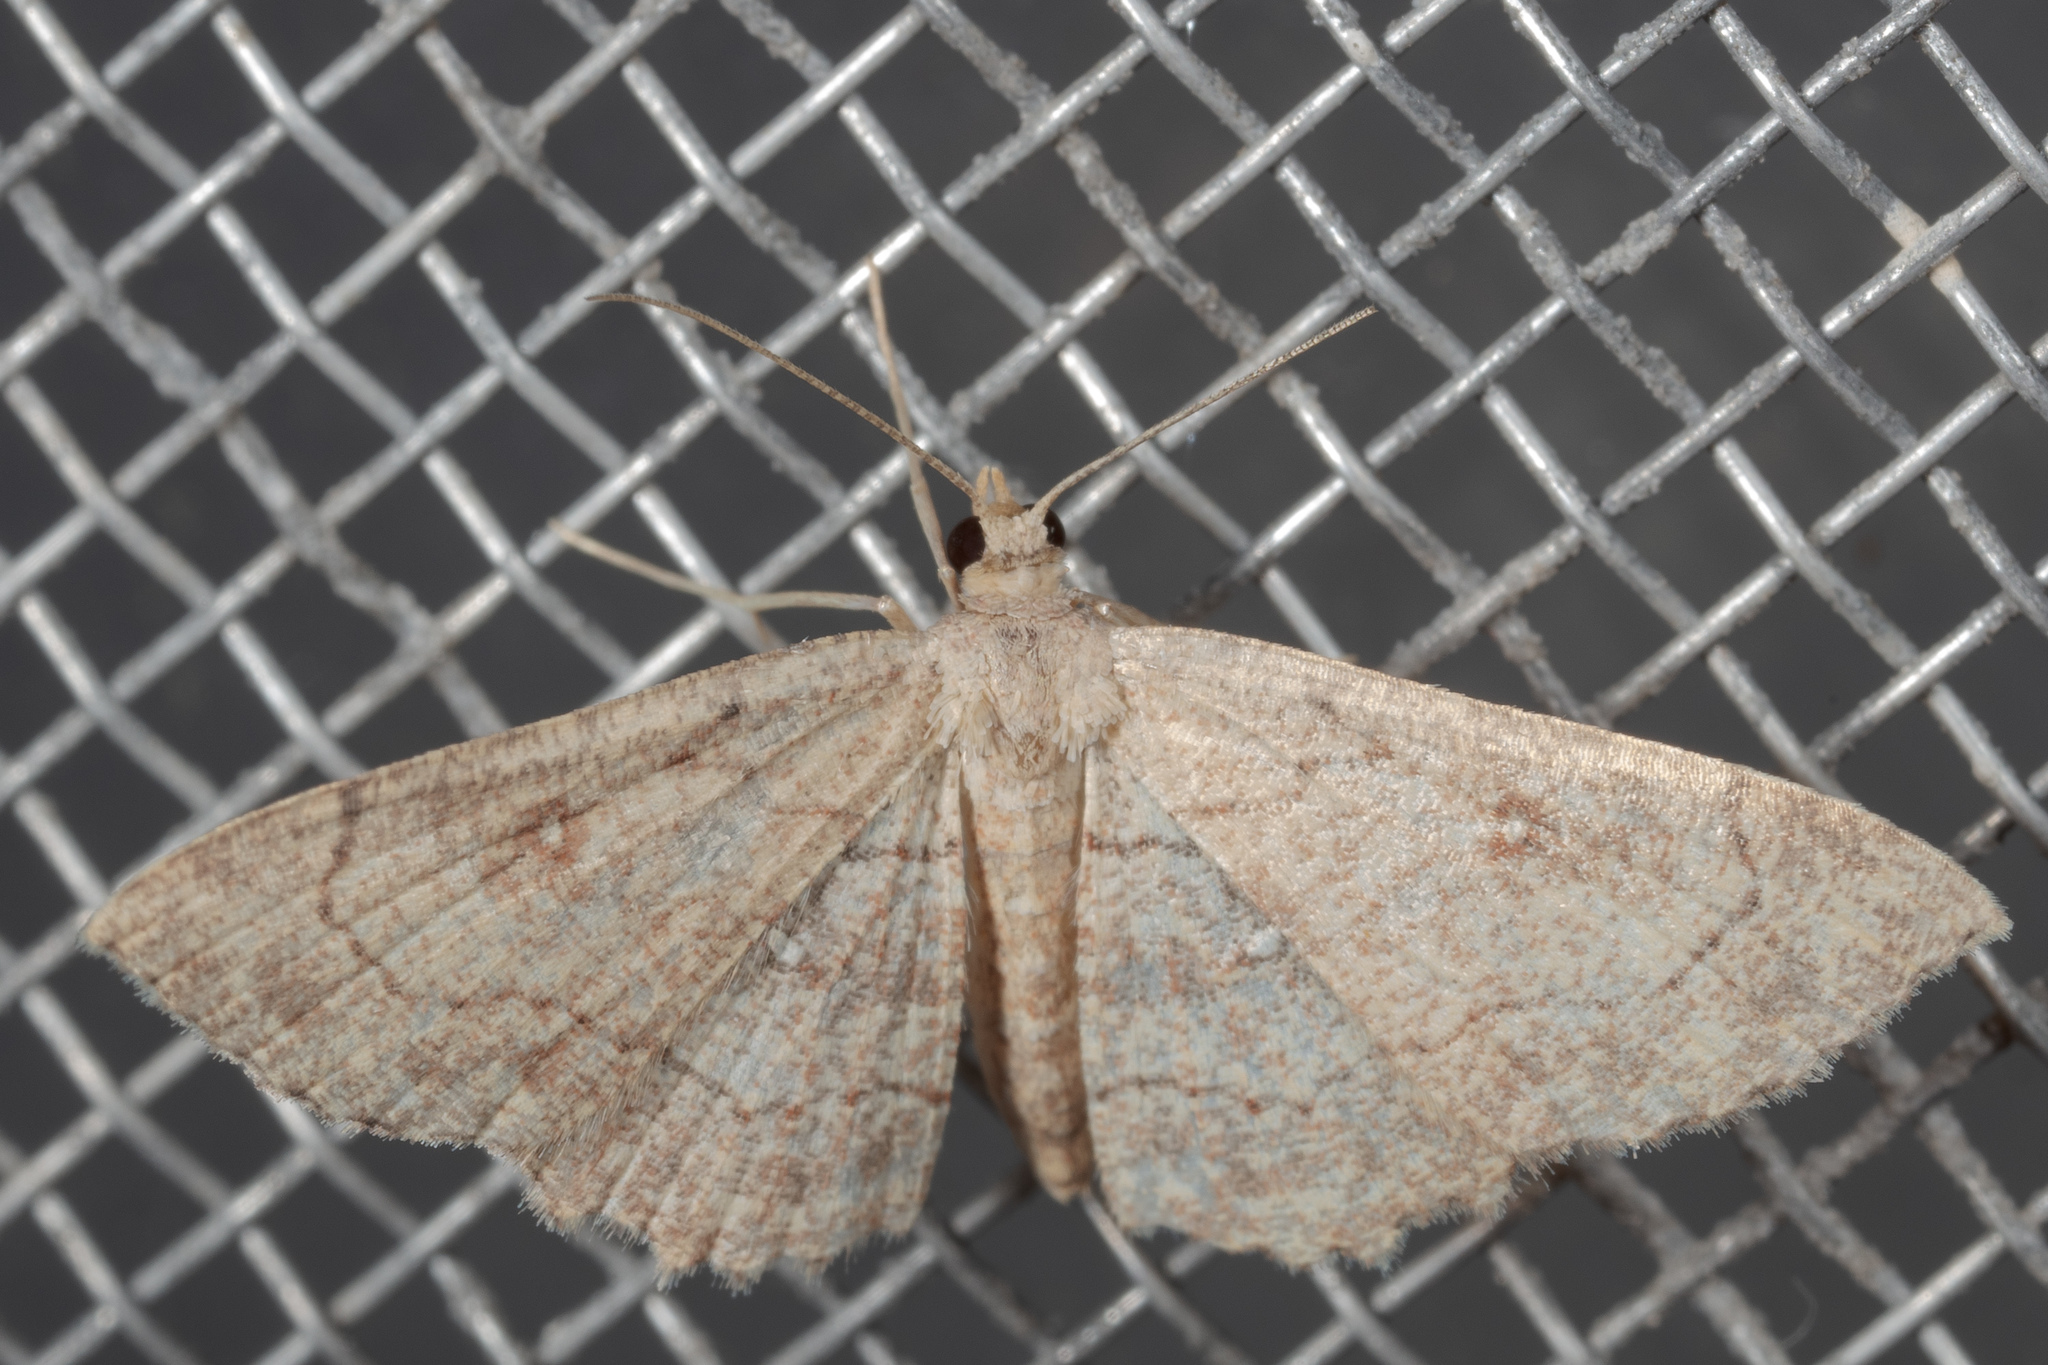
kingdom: Animalia
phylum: Arthropoda
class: Insecta
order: Lepidoptera
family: Geometridae
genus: Cyclophora
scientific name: Cyclophora nanaria
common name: Cankerworm
